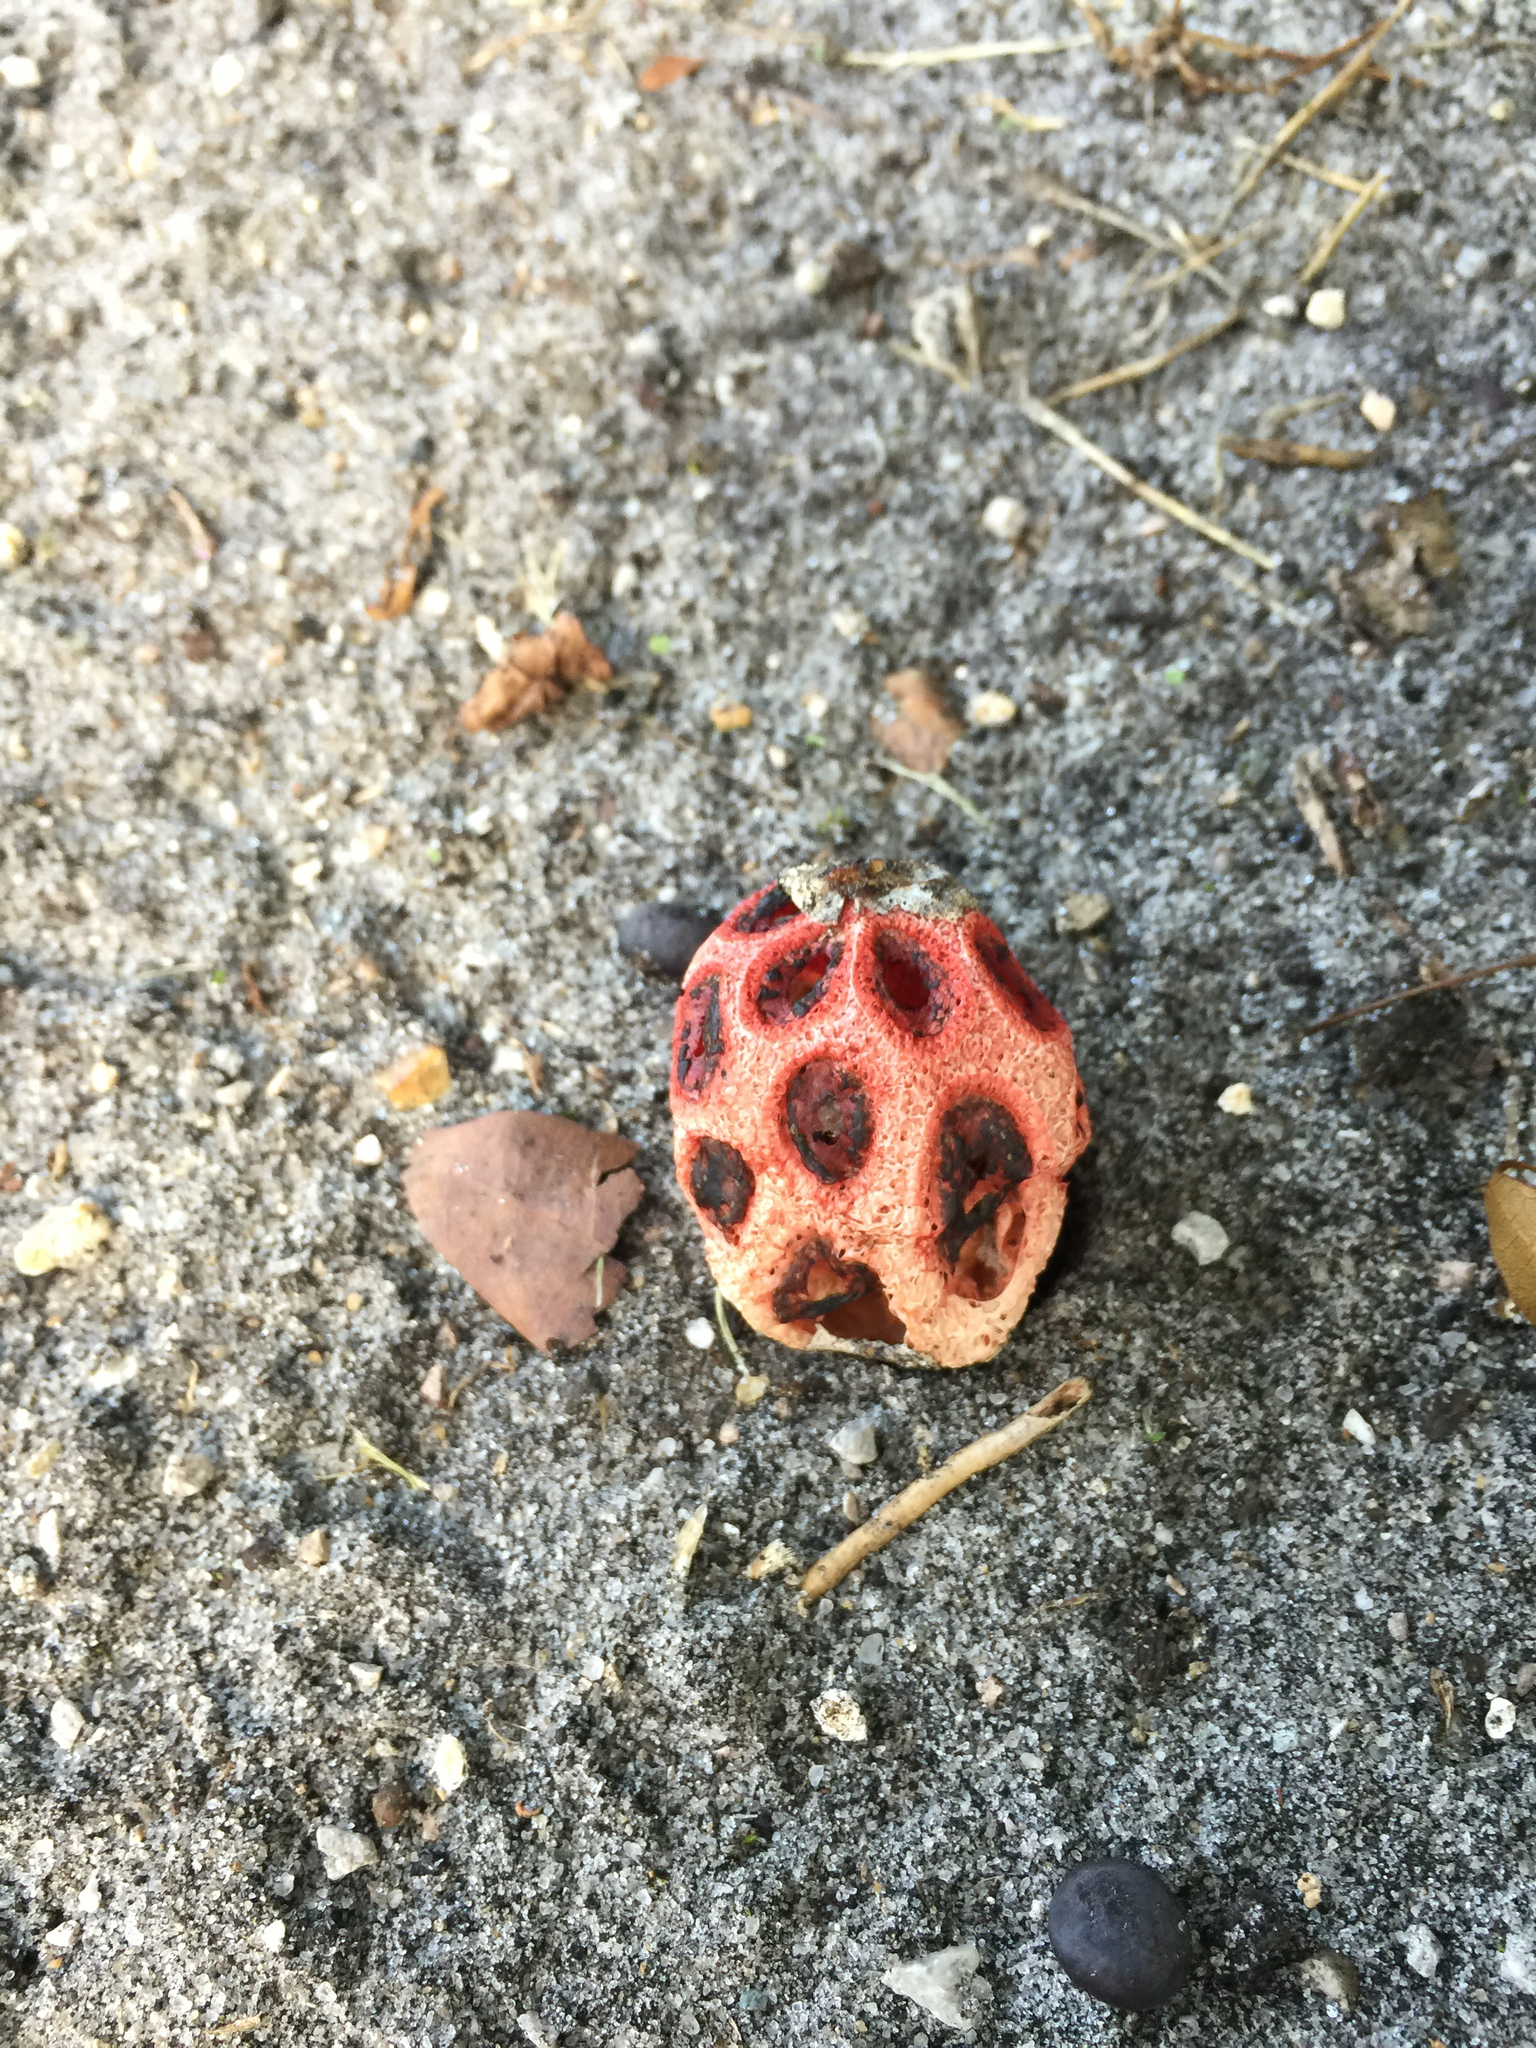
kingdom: Fungi
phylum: Basidiomycota
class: Agaricomycetes
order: Phallales
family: Phallaceae
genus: Clathrus
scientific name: Clathrus crispatus
